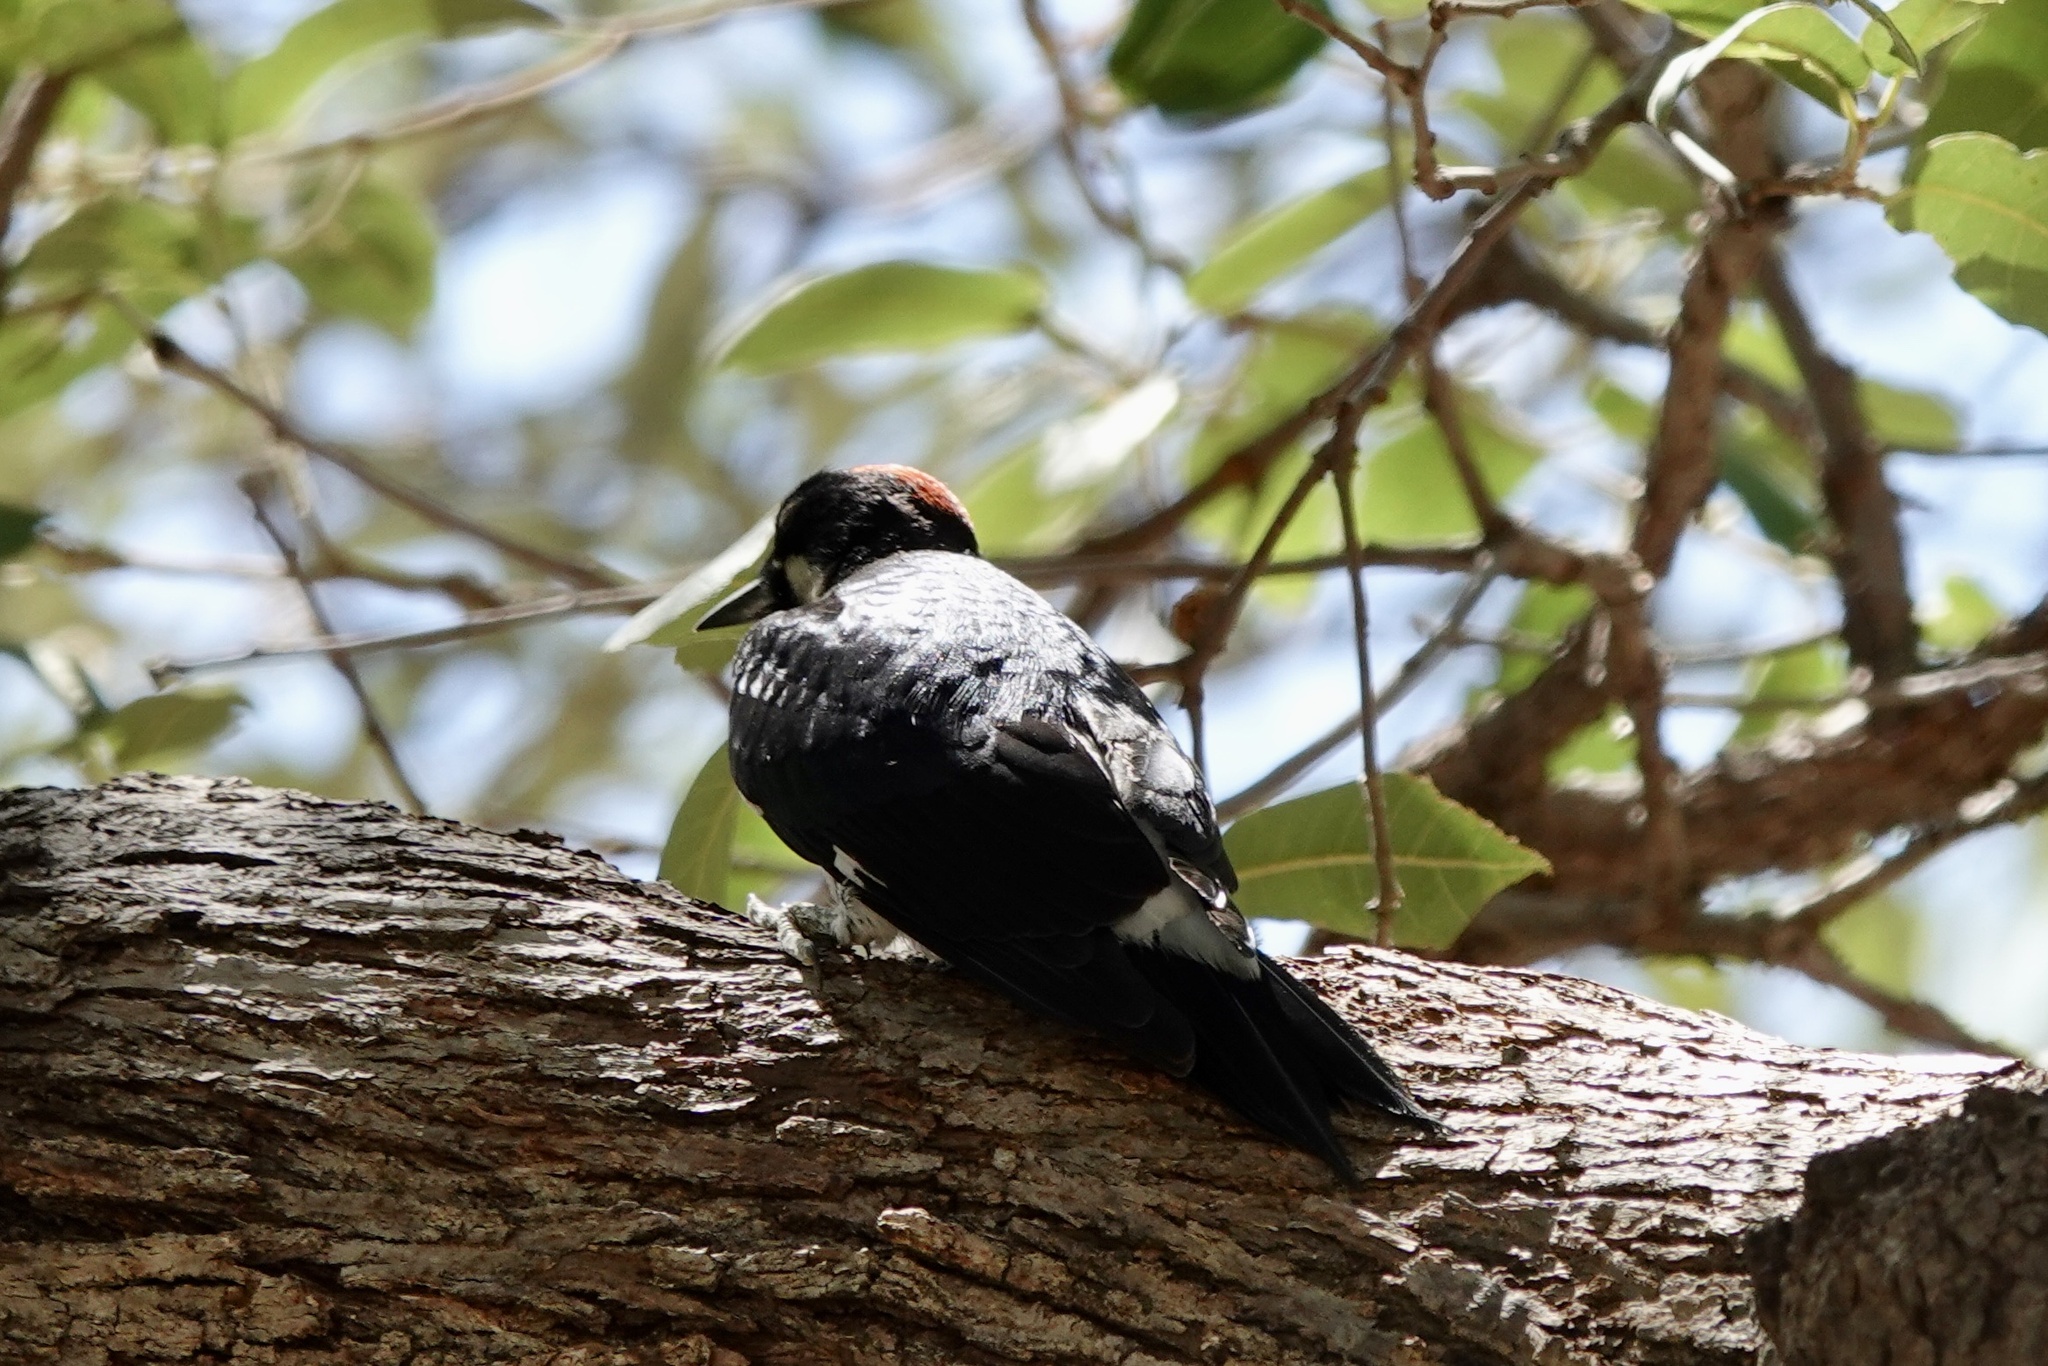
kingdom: Animalia
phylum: Chordata
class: Aves
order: Piciformes
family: Picidae
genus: Melanerpes
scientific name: Melanerpes formicivorus
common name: Acorn woodpecker
